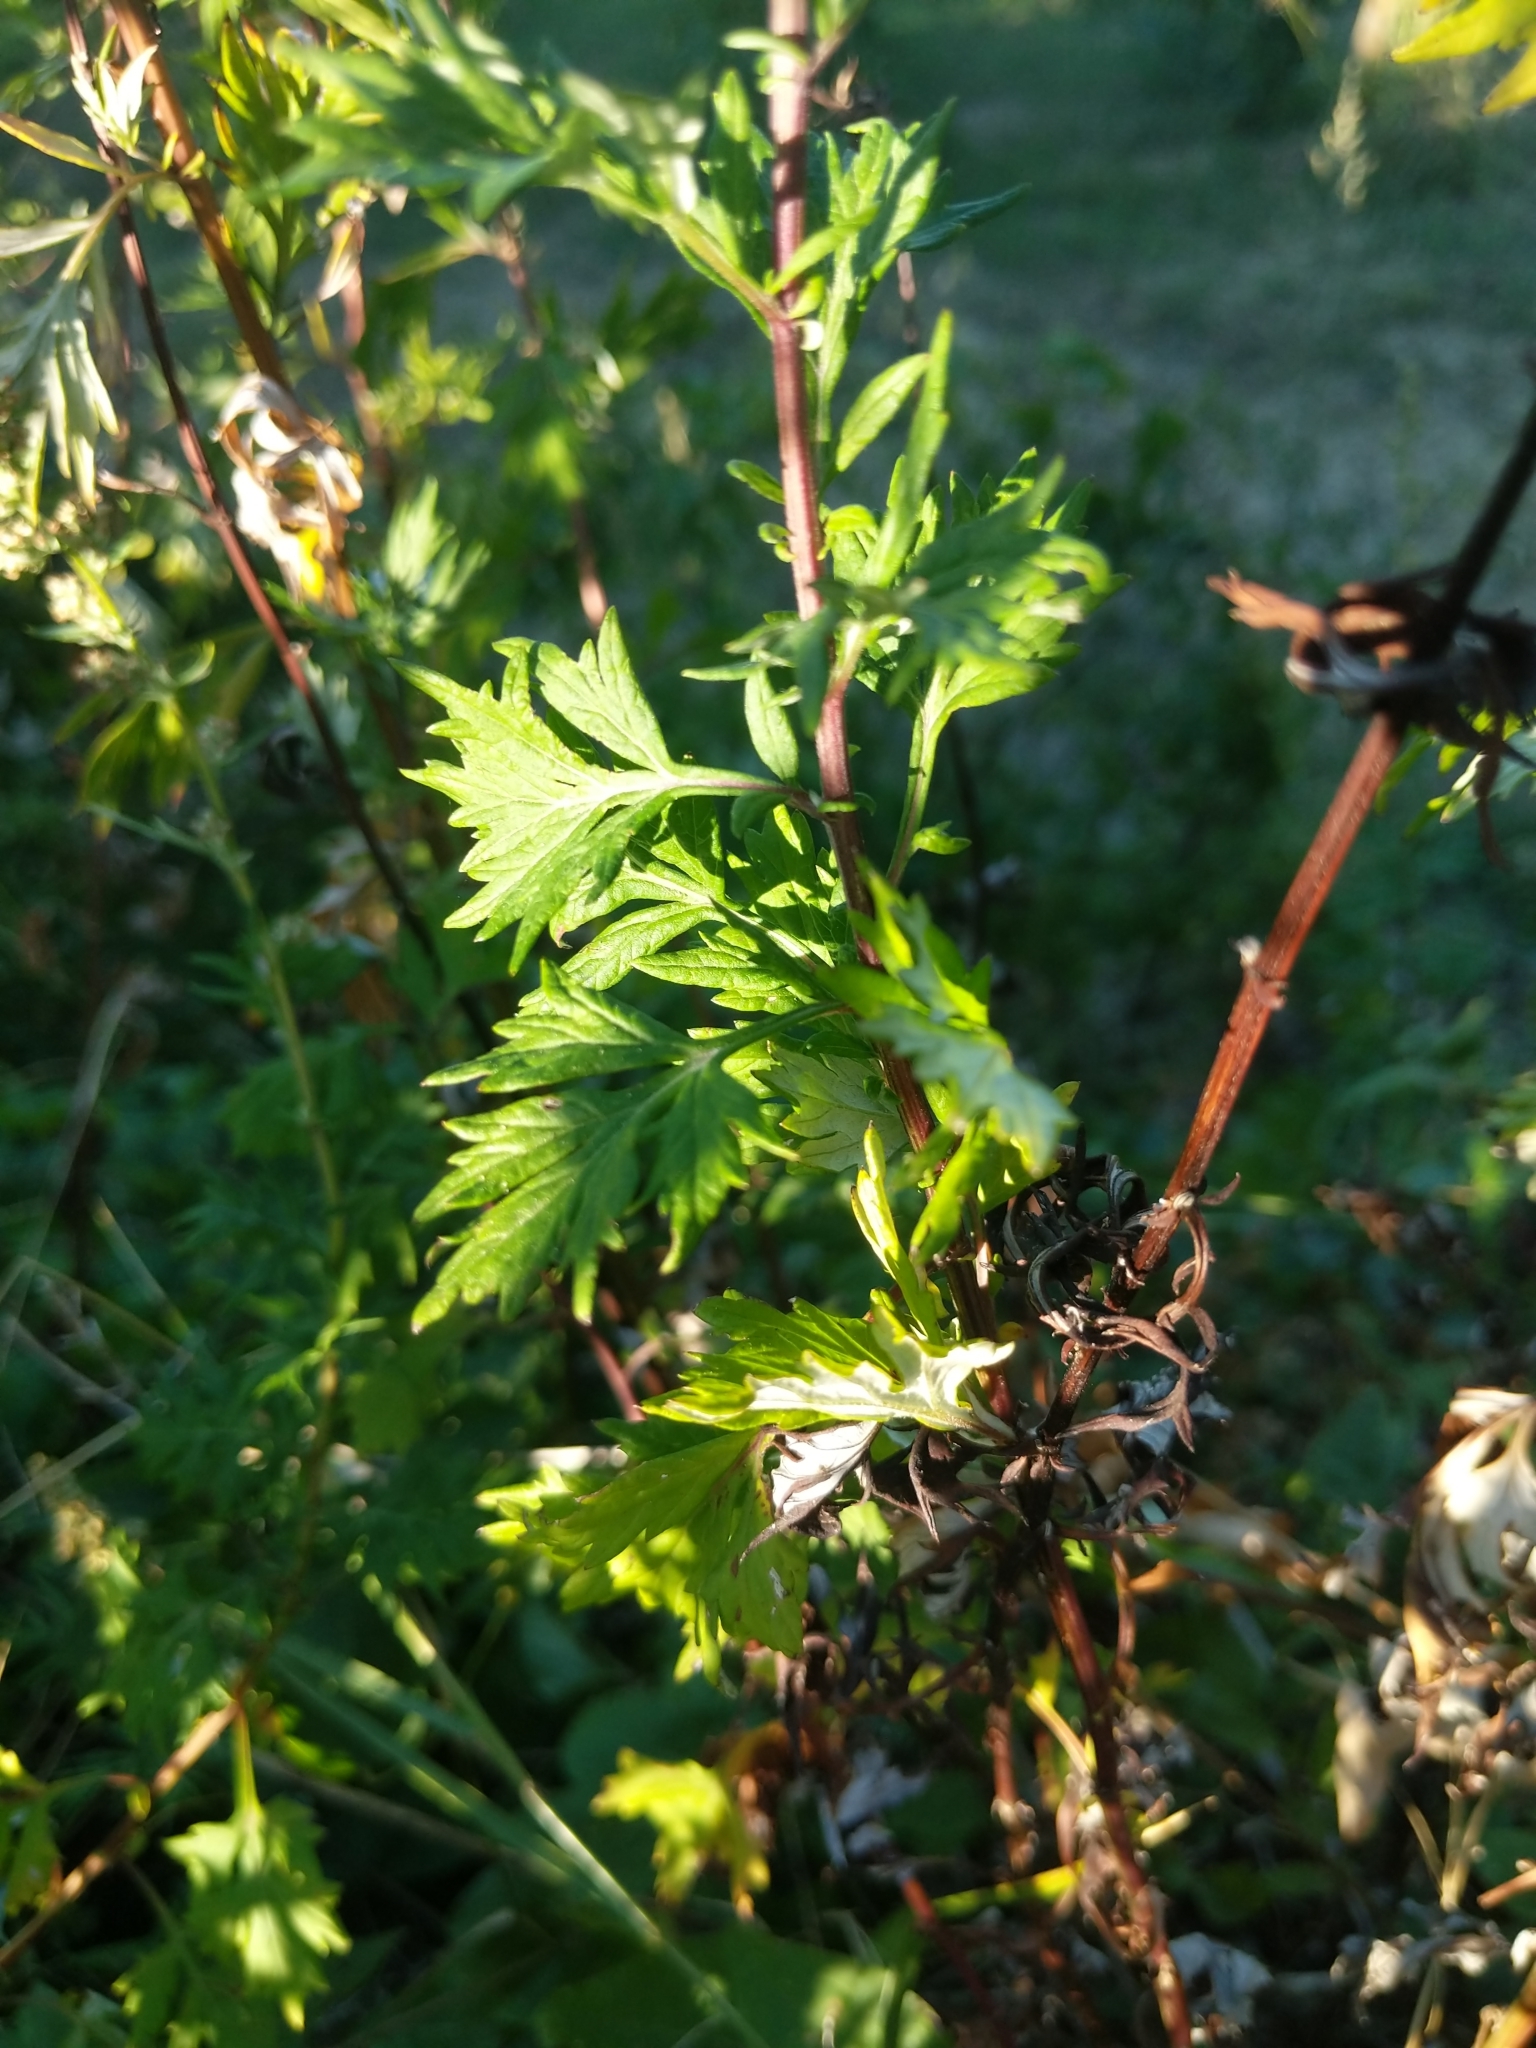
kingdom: Plantae
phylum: Tracheophyta
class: Magnoliopsida
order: Asterales
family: Asteraceae
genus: Artemisia
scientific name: Artemisia vulgaris
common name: Mugwort
